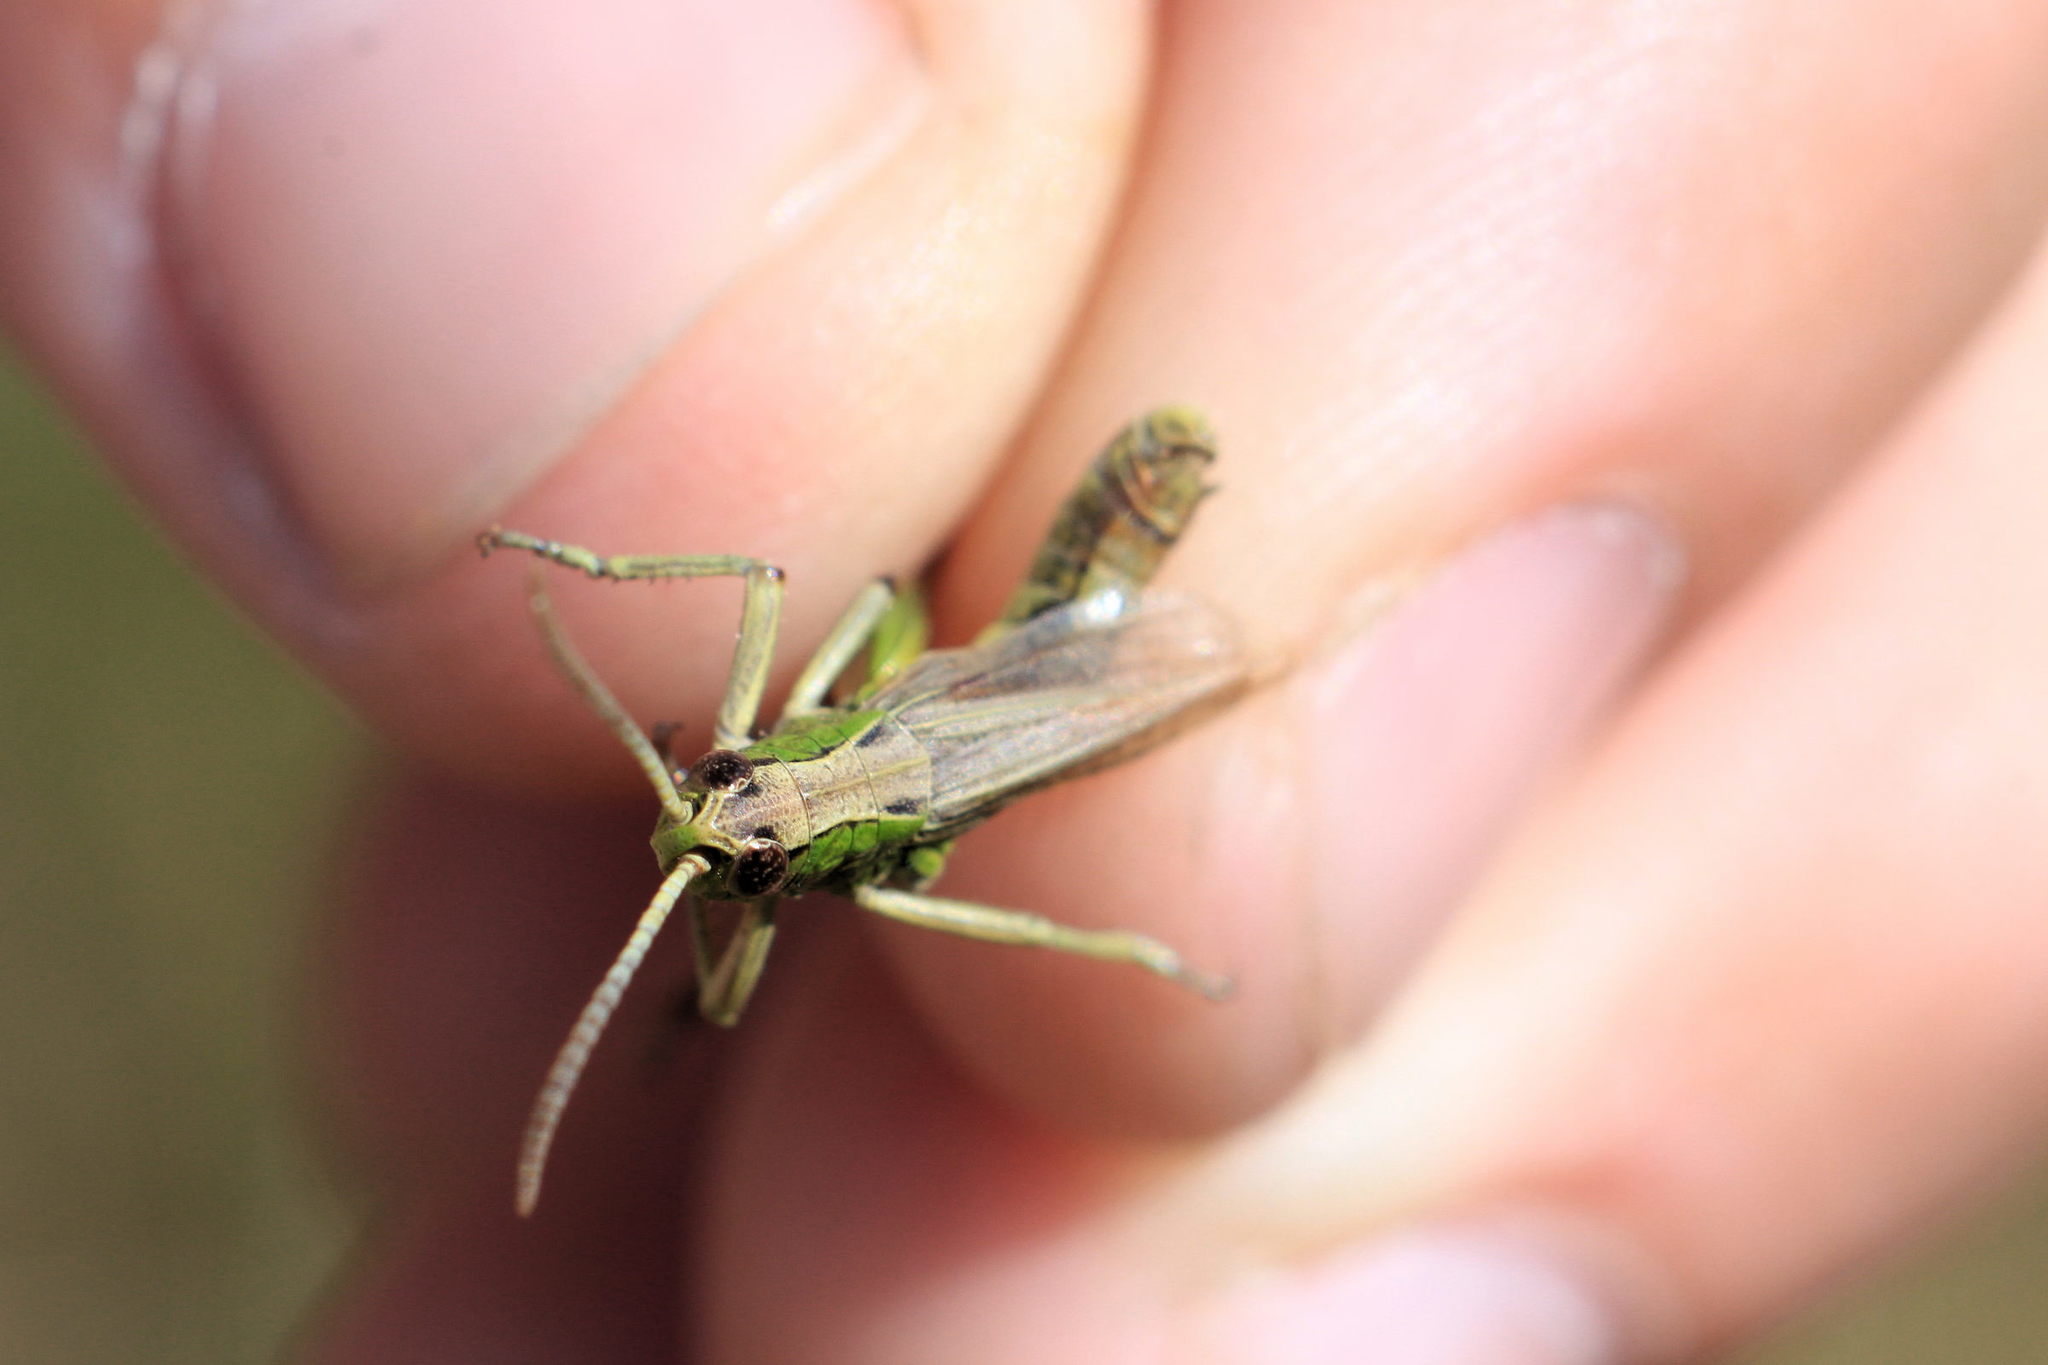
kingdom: Animalia
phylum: Arthropoda
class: Insecta
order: Orthoptera
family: Acrididae
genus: Pseudochorthippus
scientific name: Pseudochorthippus parallelus
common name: Meadow grasshopper
